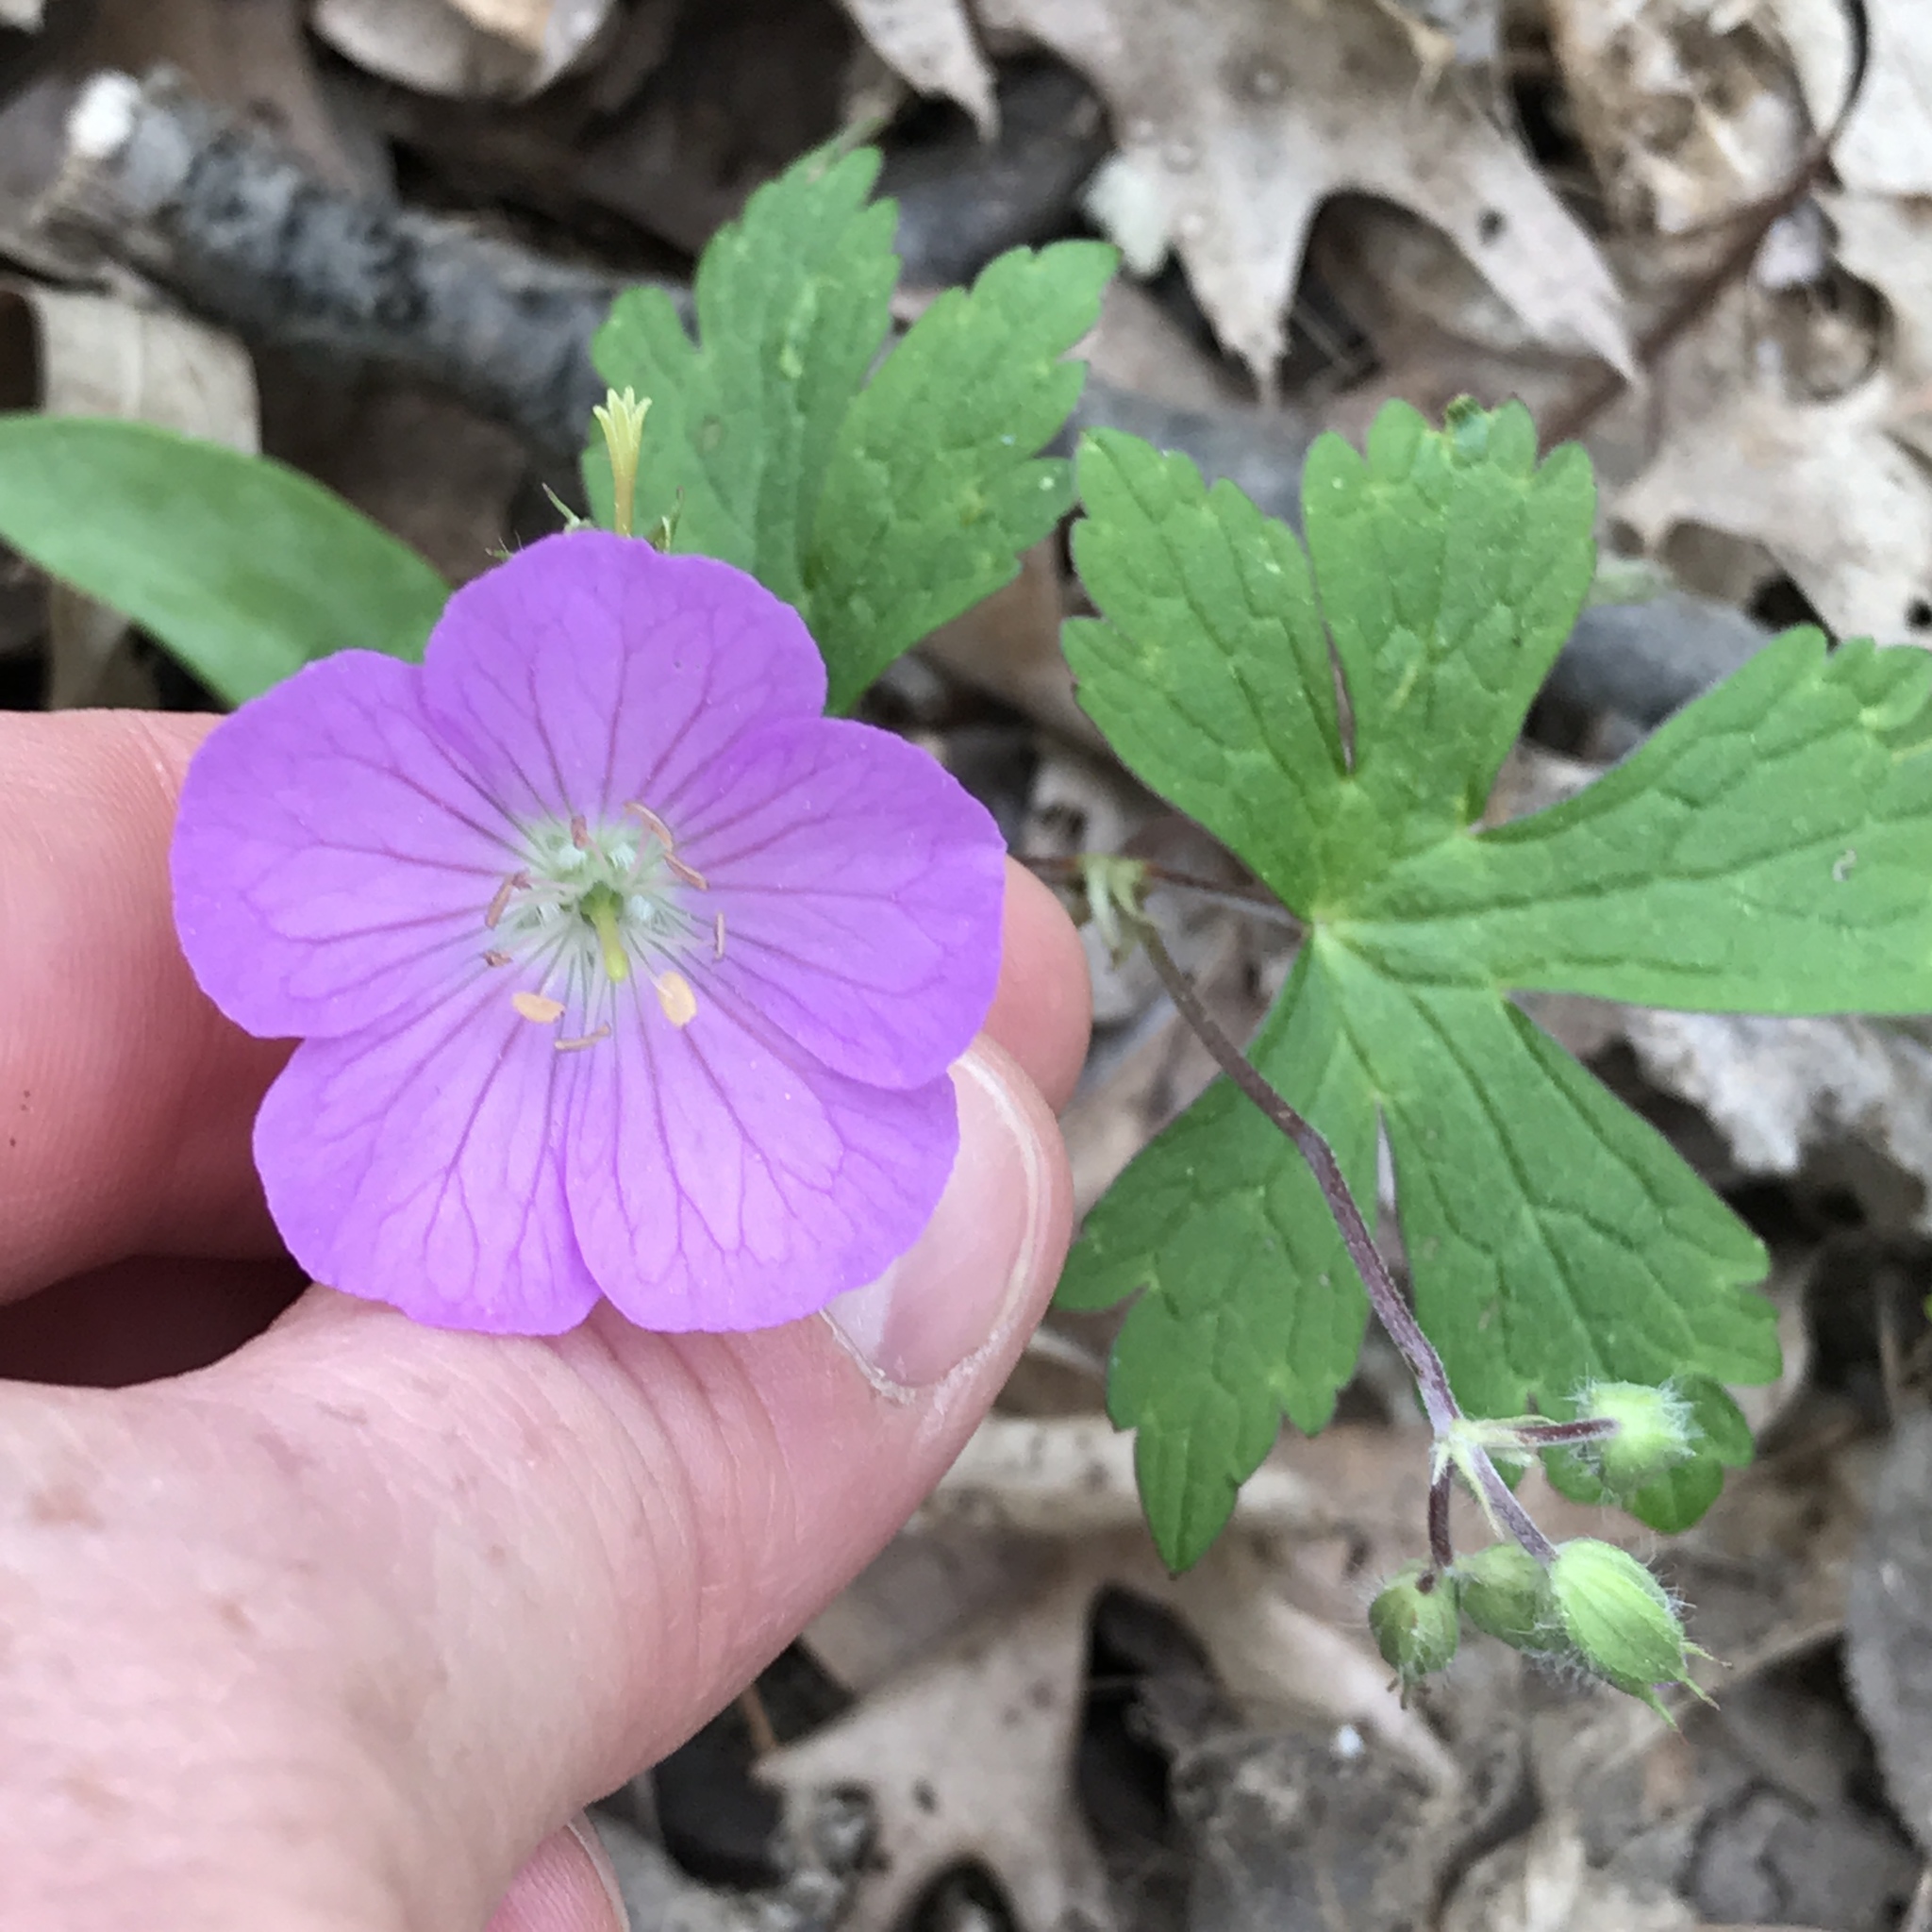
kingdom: Plantae
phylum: Tracheophyta
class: Magnoliopsida
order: Geraniales
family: Geraniaceae
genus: Geranium
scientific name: Geranium maculatum
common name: Spotted geranium
